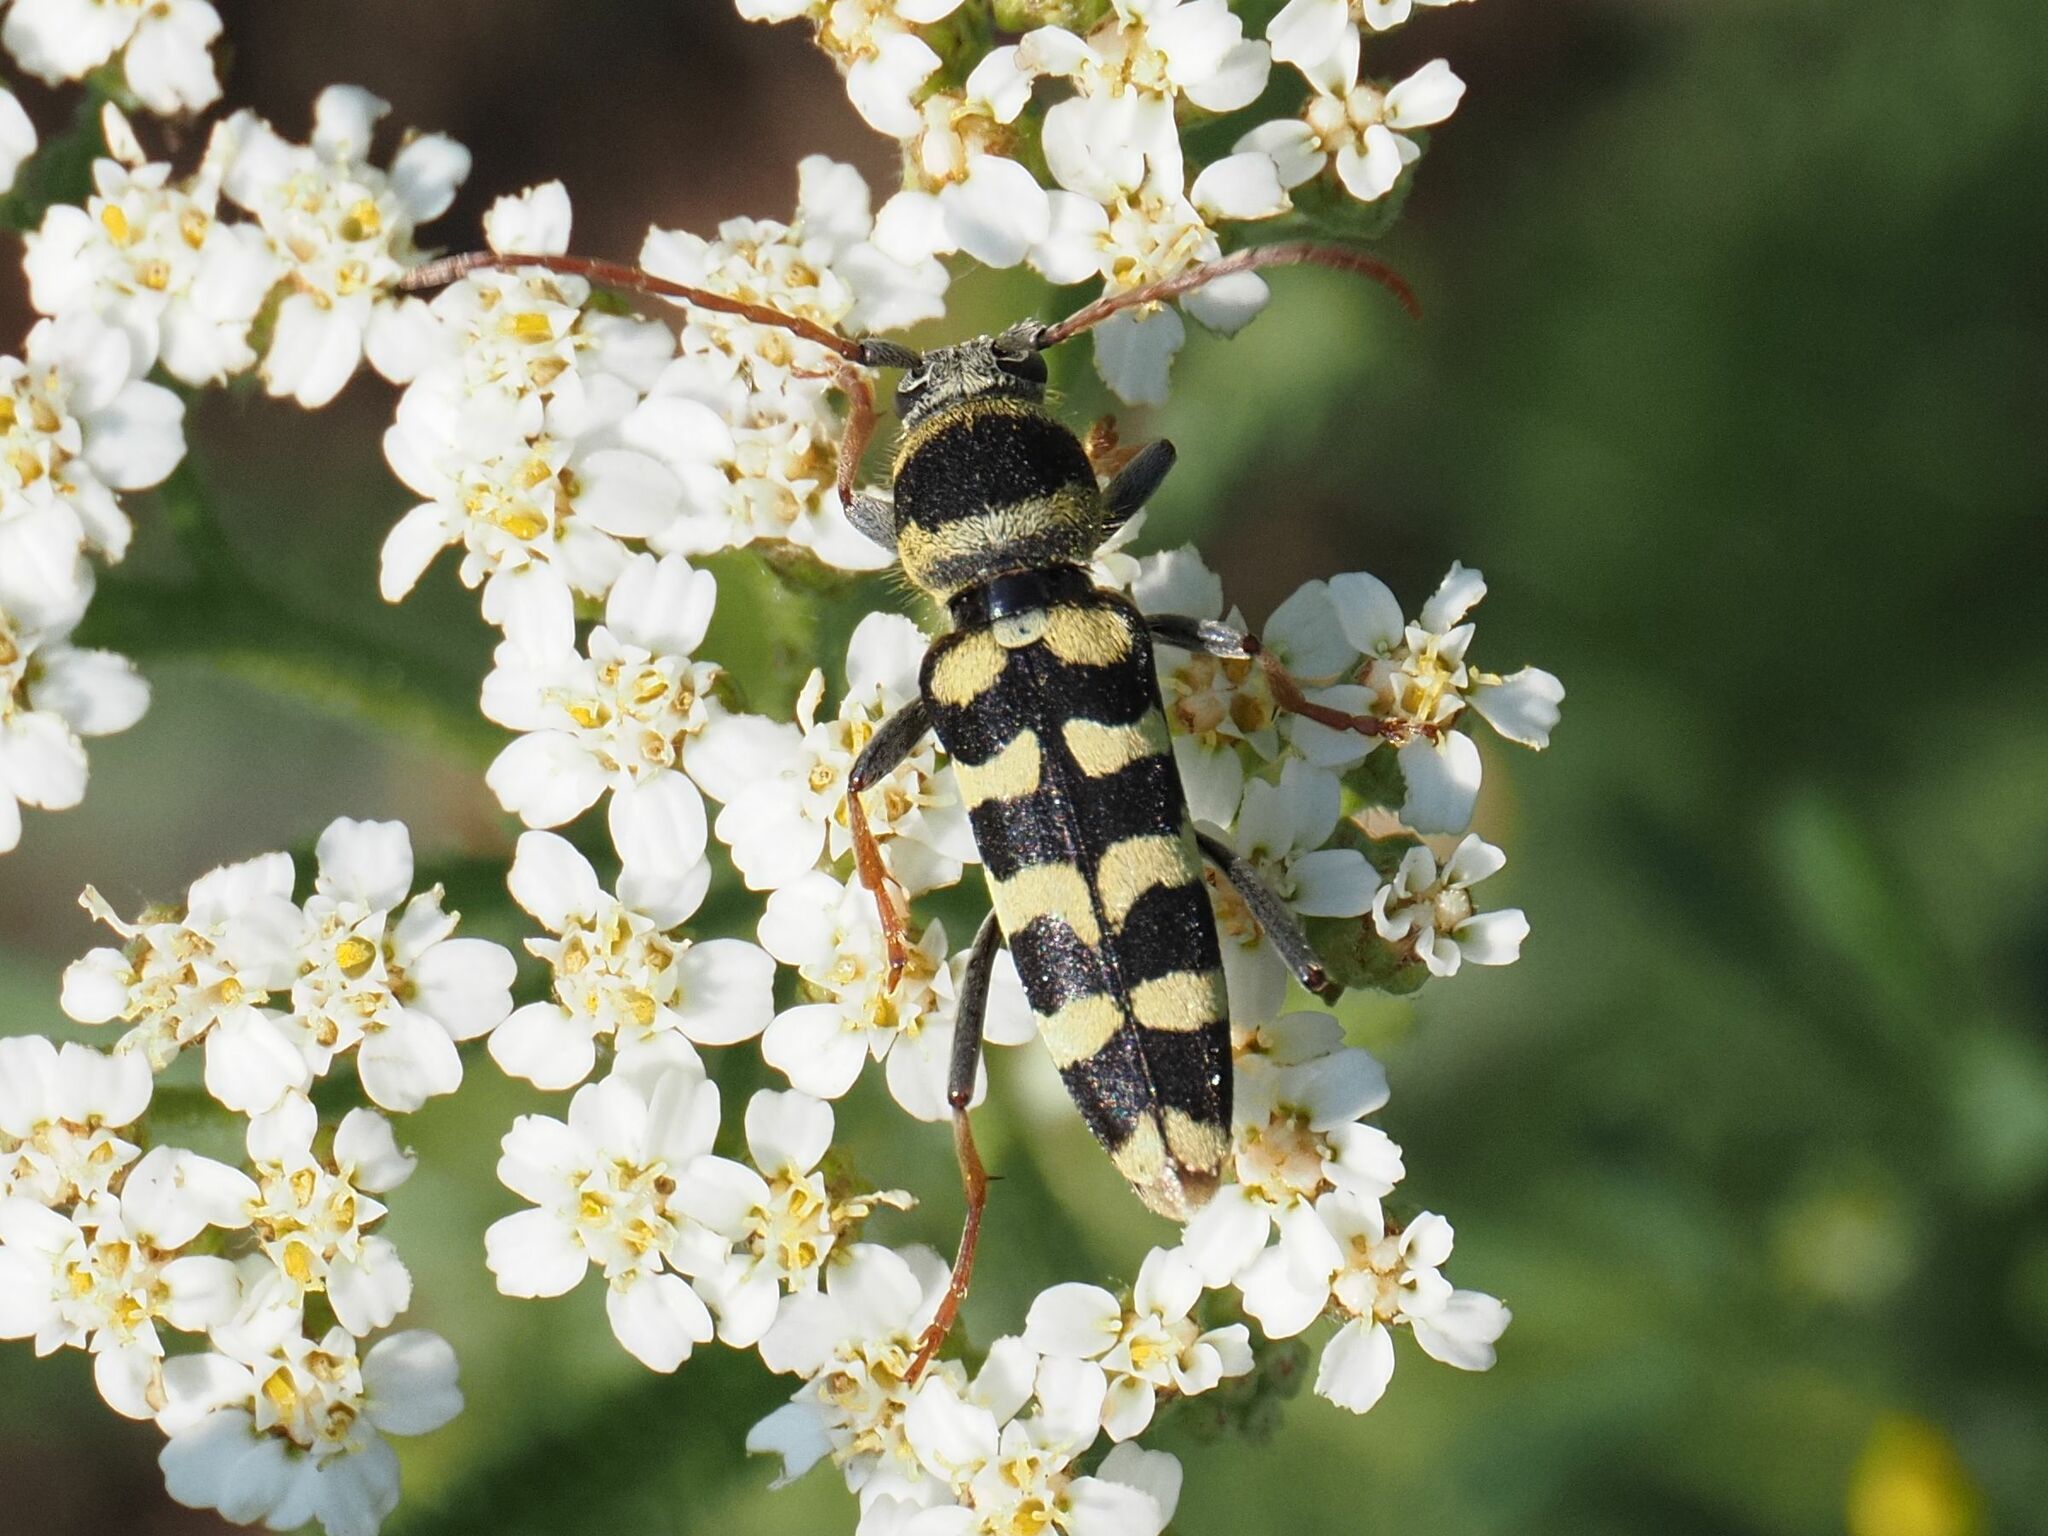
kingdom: Animalia
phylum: Arthropoda
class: Insecta
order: Coleoptera
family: Cerambycidae
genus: Plagionotus
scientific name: Plagionotus floralis
